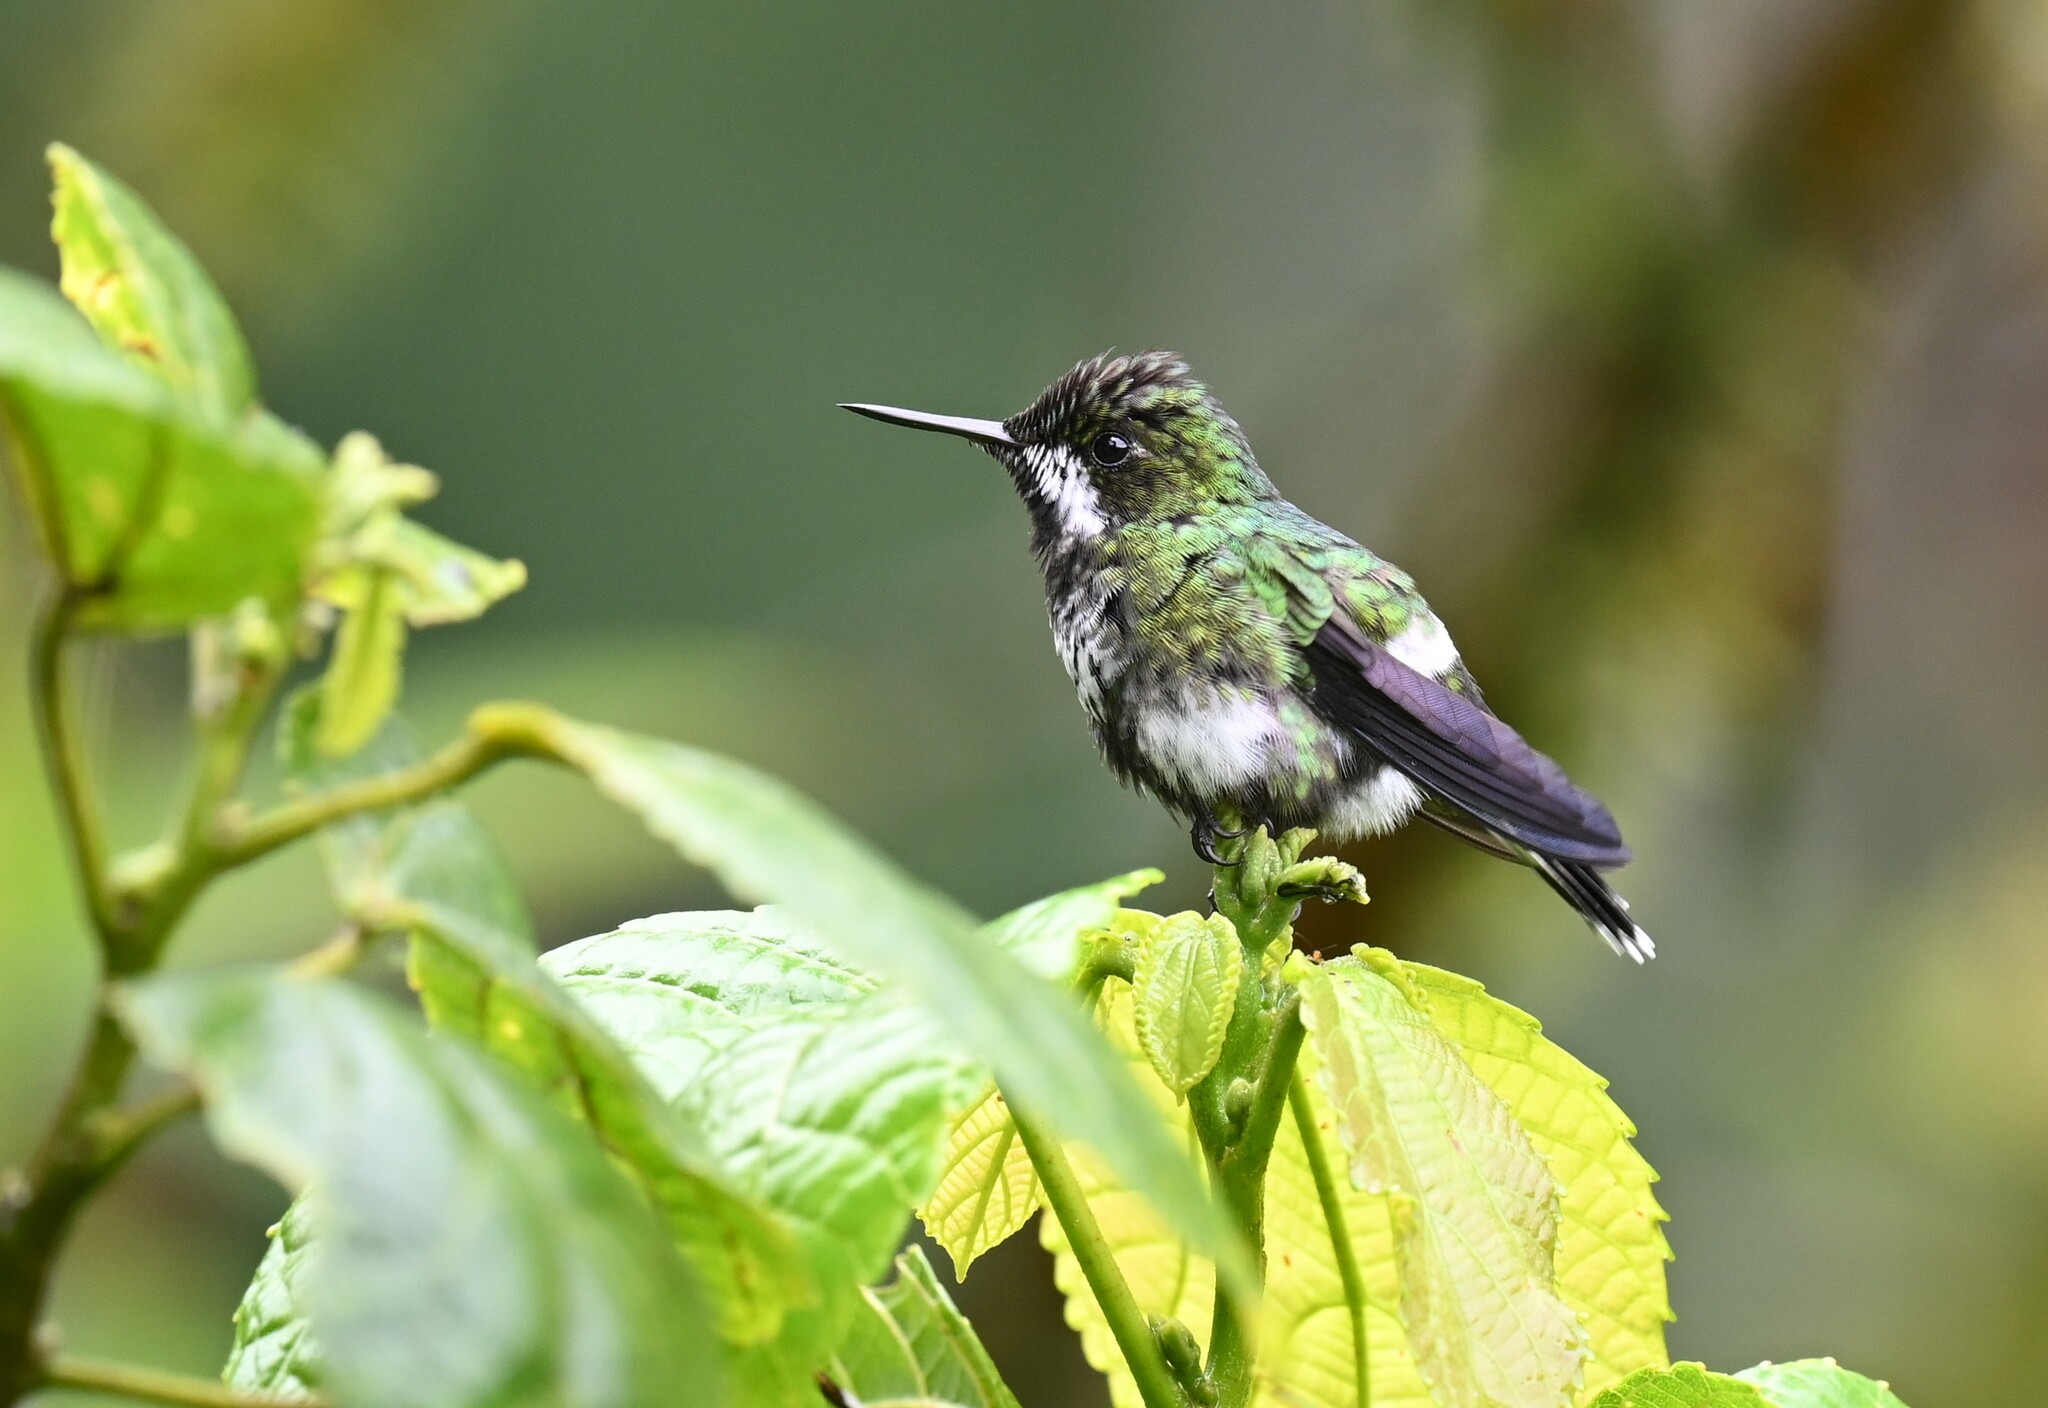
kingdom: Animalia
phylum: Chordata
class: Aves
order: Apodiformes
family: Trochilidae
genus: Discosura
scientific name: Discosura conversii
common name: Green thorntail
